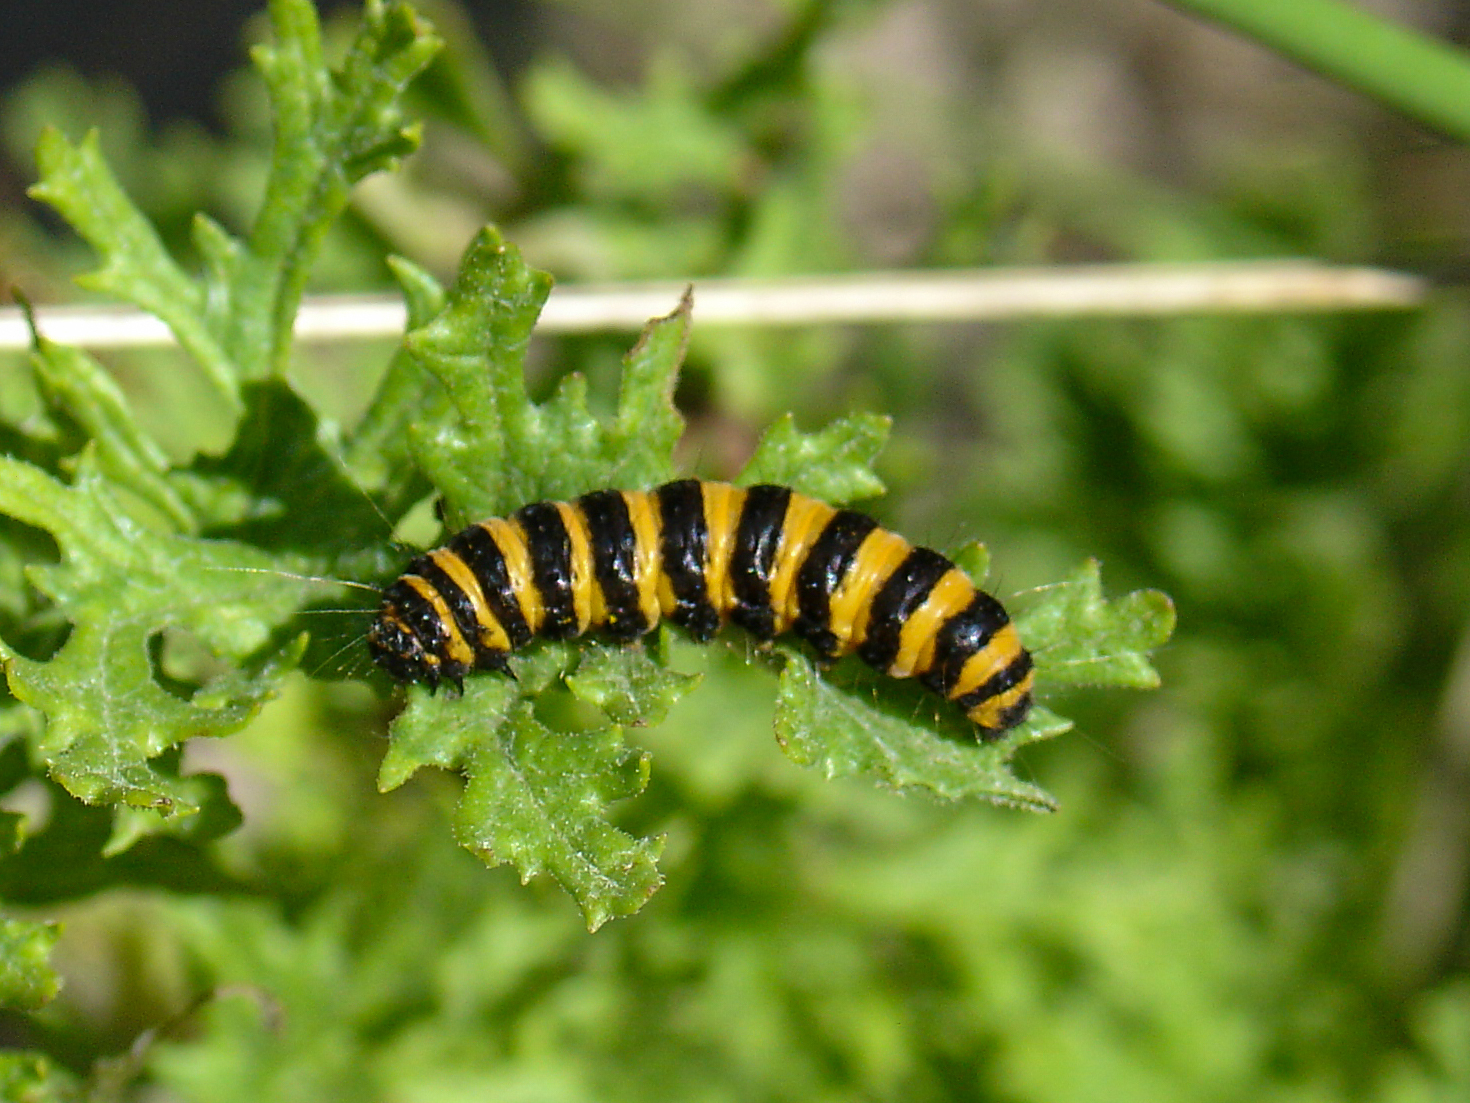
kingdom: Animalia
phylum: Arthropoda
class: Insecta
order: Lepidoptera
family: Erebidae
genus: Tyria
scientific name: Tyria jacobaeae
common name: Cinnabar
